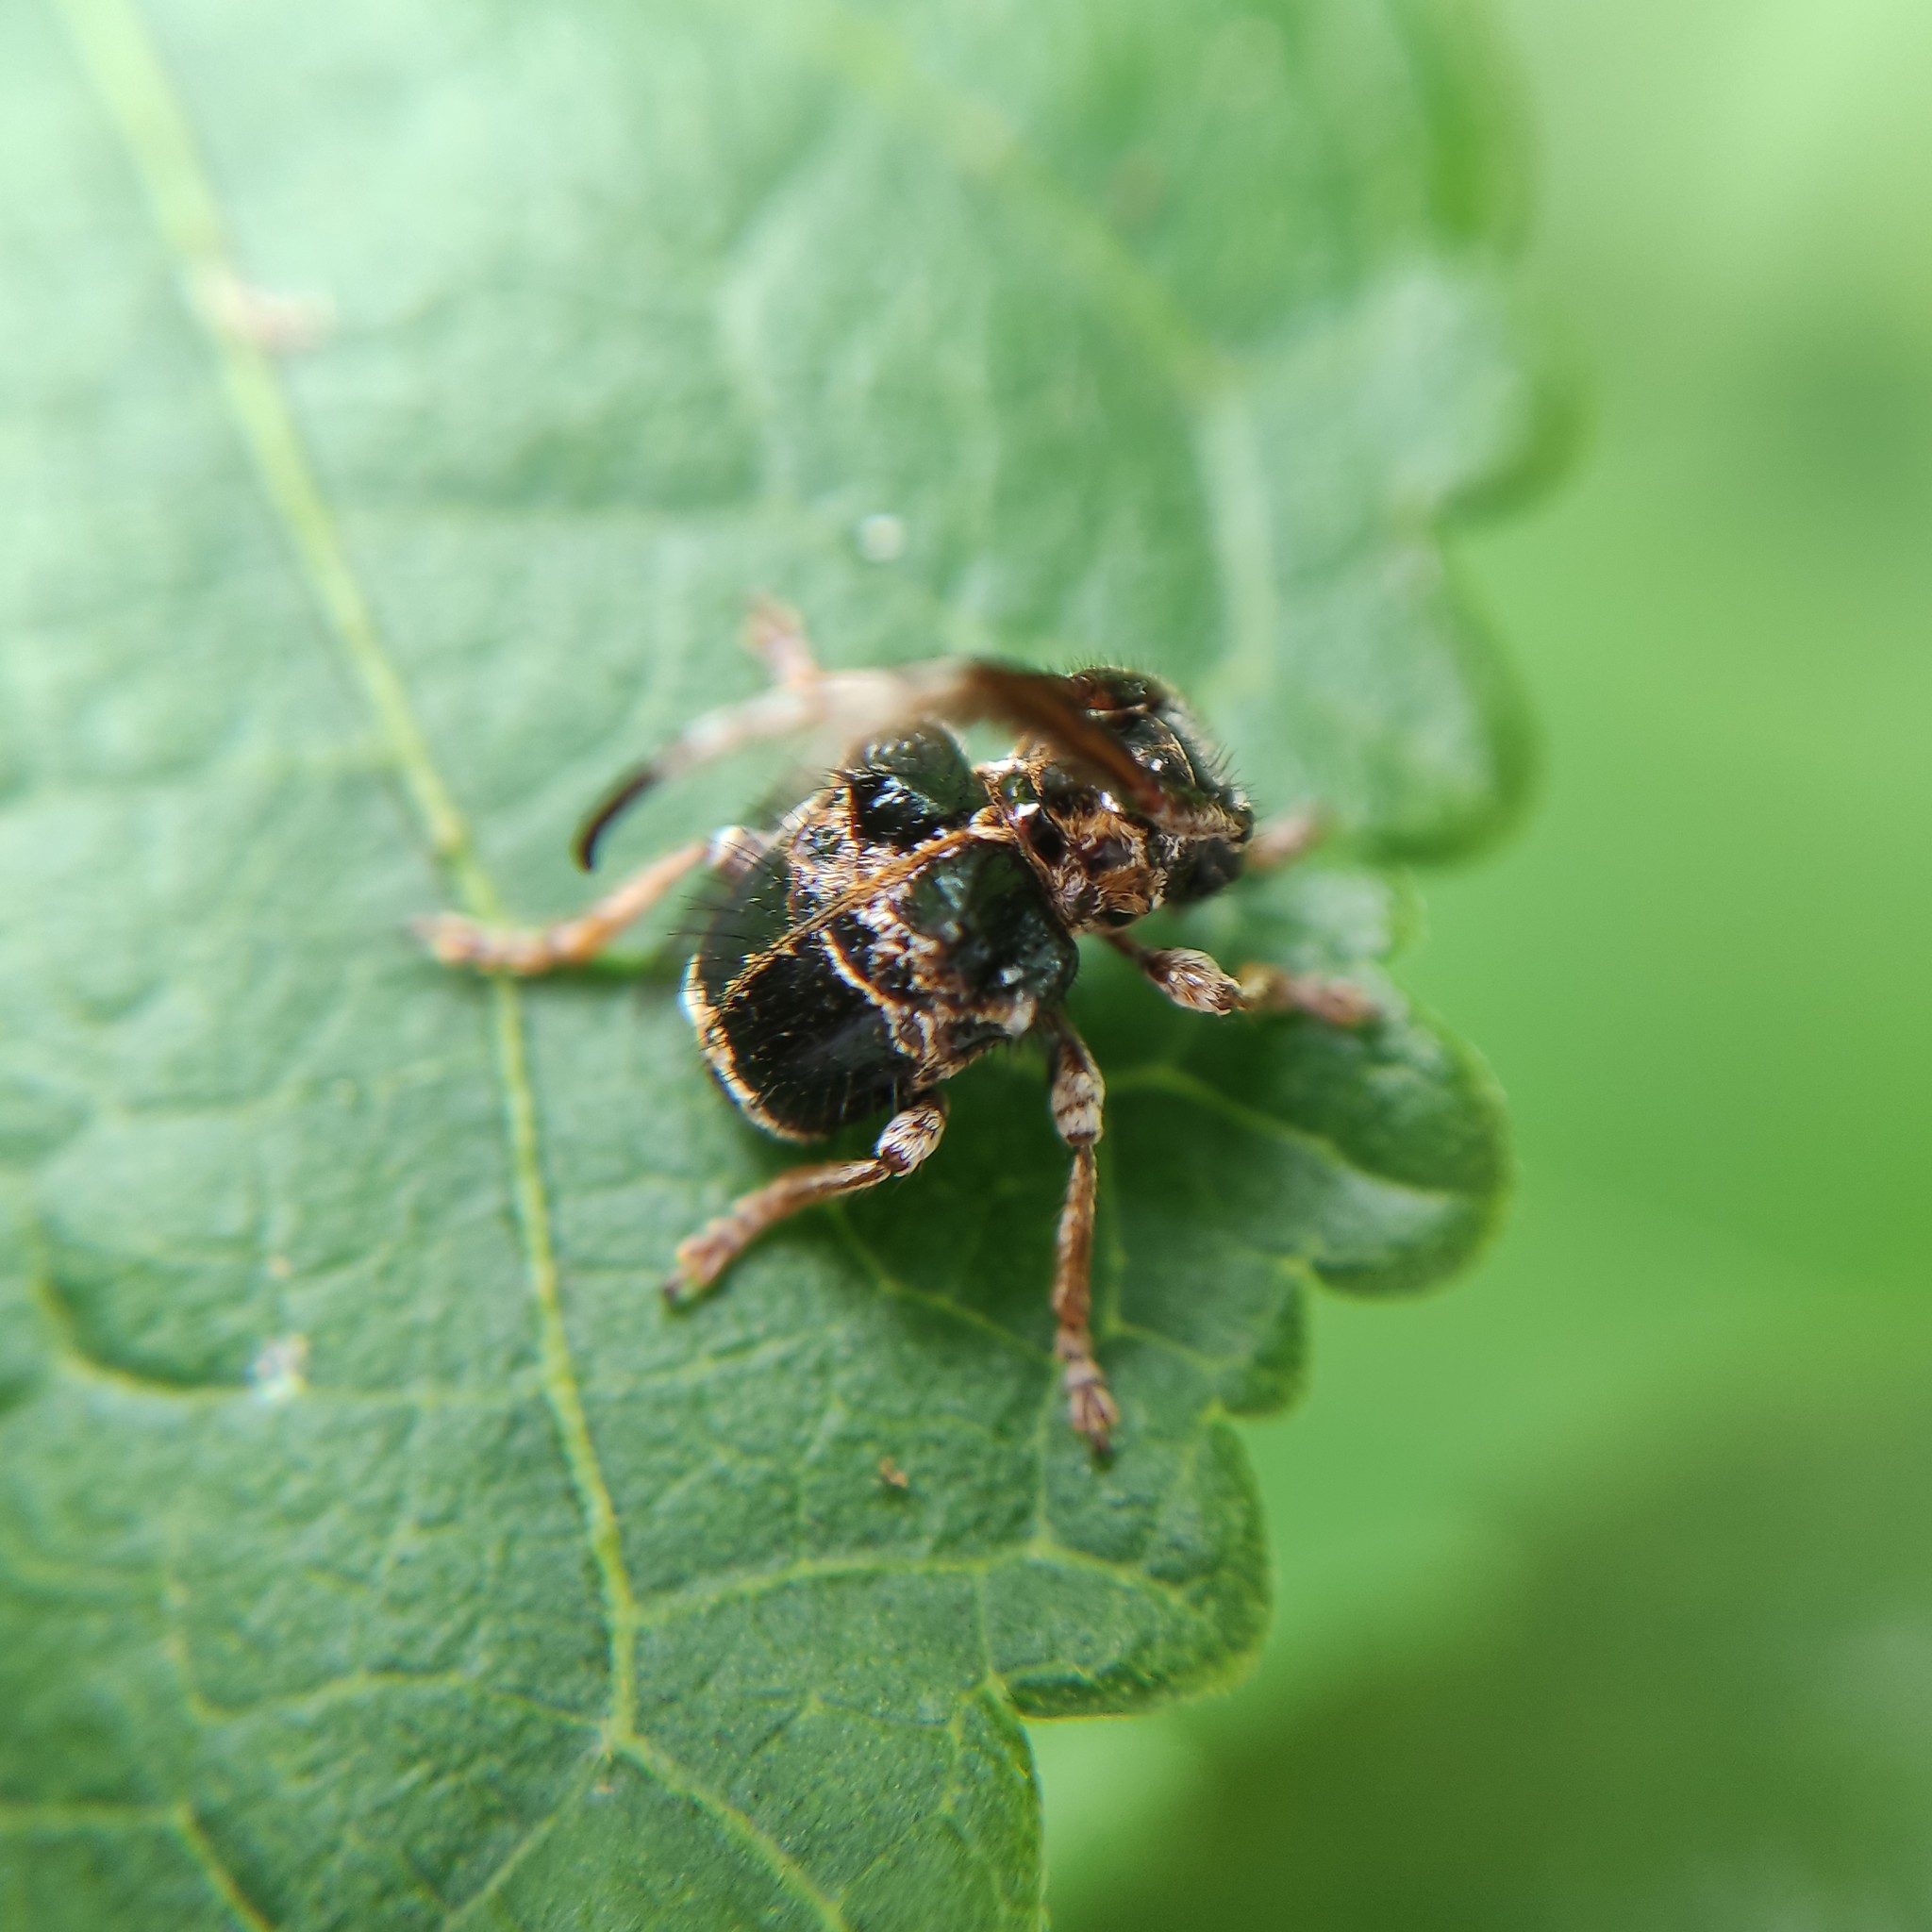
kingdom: Animalia
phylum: Arthropoda
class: Insecta
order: Coleoptera
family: Cerambycidae
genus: Tessarecphora
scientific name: Tessarecphora arachnoides
